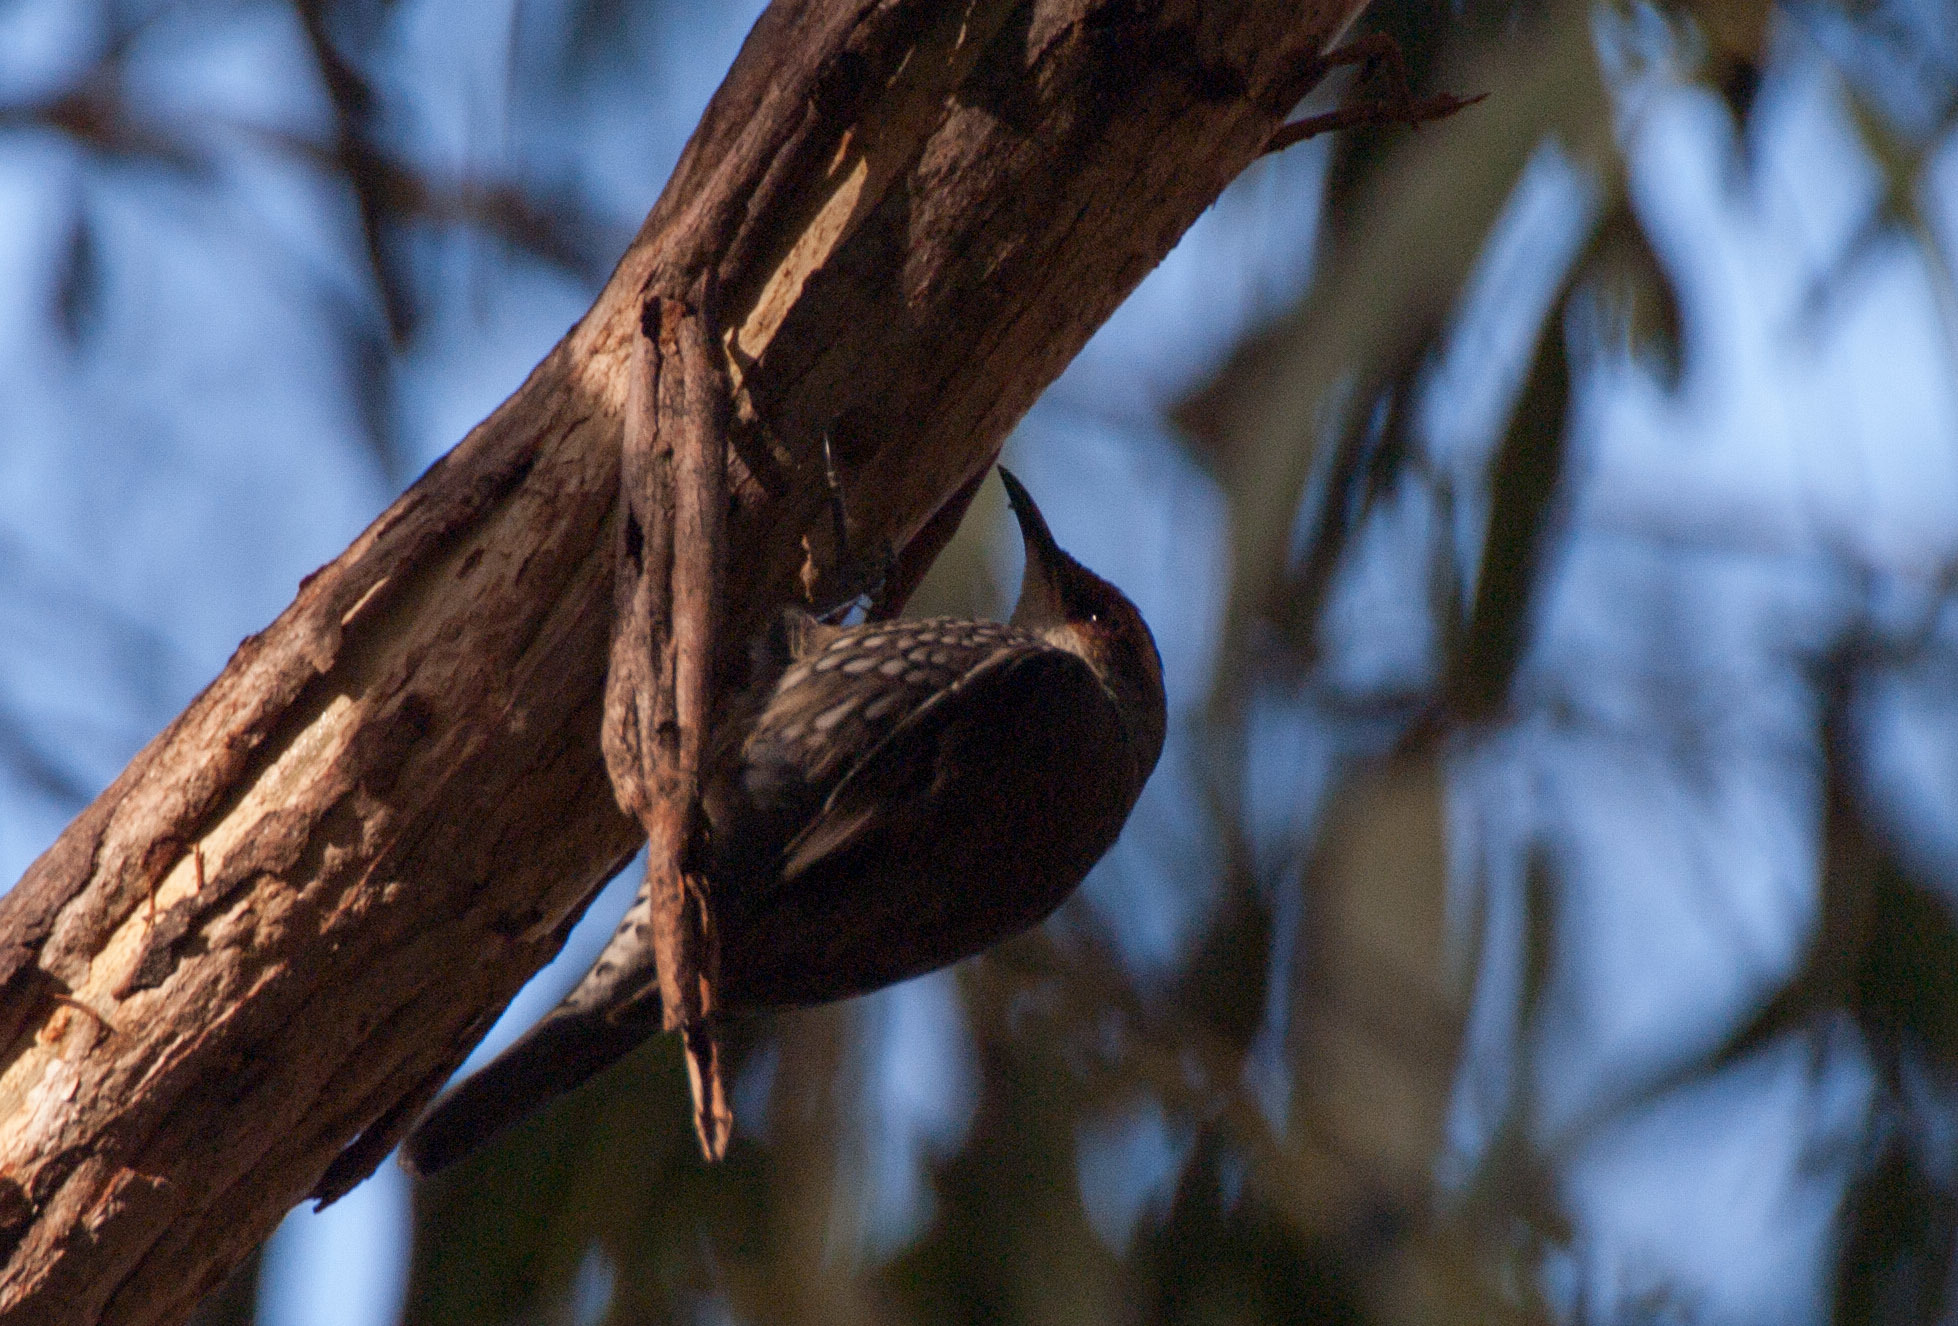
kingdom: Animalia
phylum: Chordata
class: Aves
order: Passeriformes
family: Climacteridae
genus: Climacteris
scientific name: Climacteris erythrops
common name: Red-browed treecreeper
